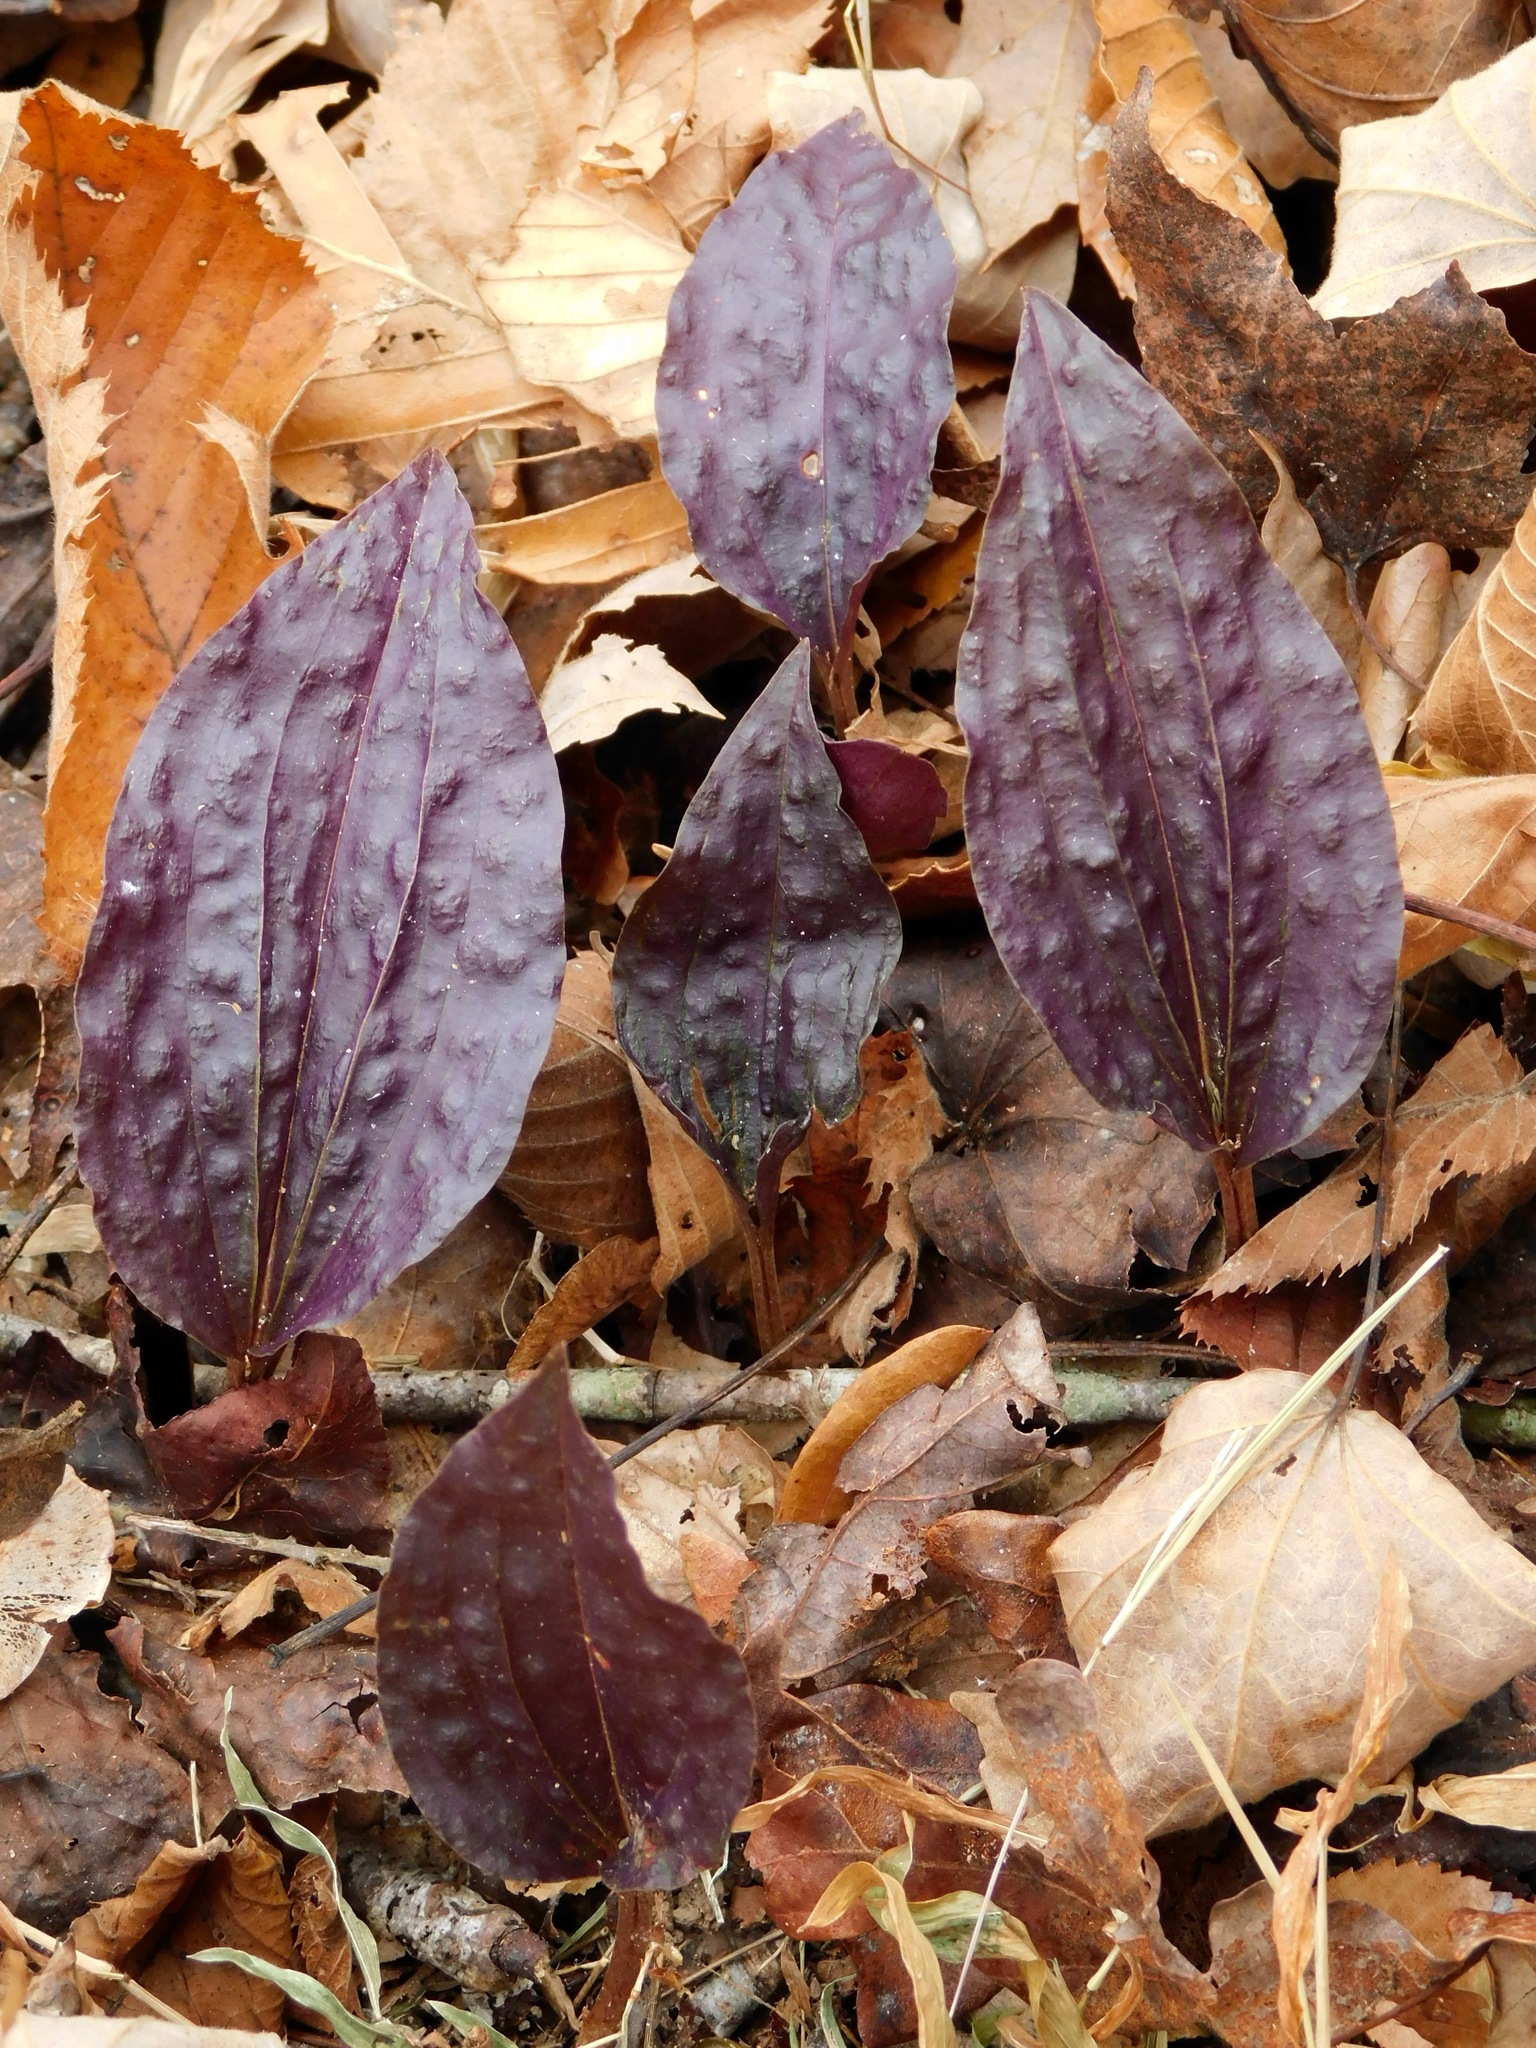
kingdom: Plantae
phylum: Tracheophyta
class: Liliopsida
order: Asparagales
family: Orchidaceae
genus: Tipularia
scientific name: Tipularia discolor
